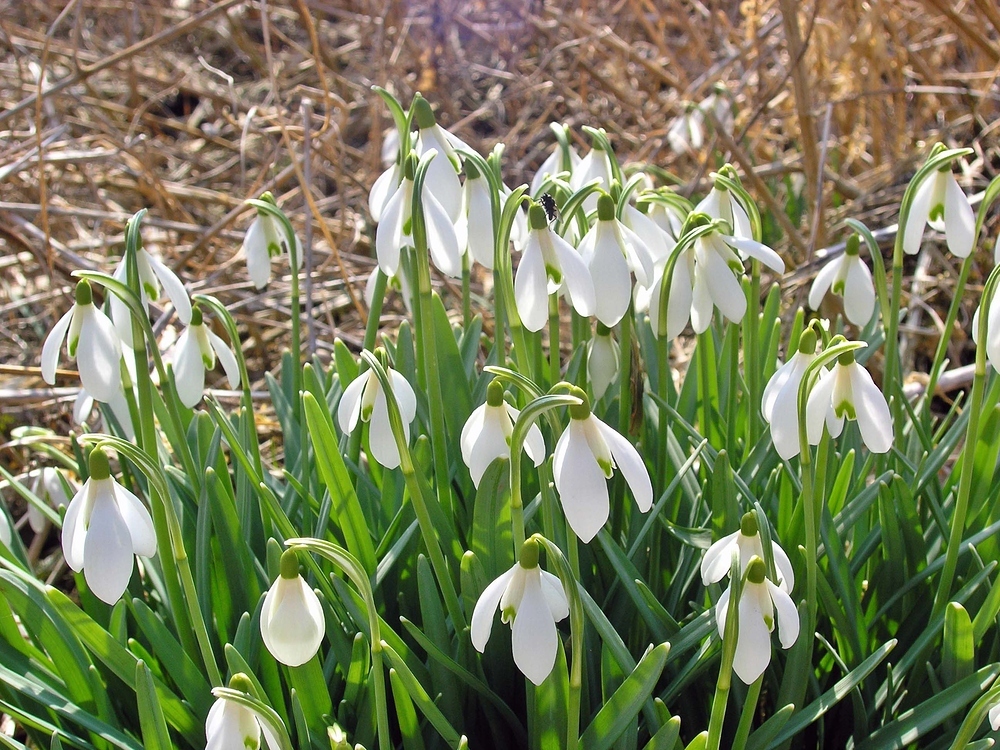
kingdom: Plantae
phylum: Tracheophyta
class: Liliopsida
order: Asparagales
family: Amaryllidaceae
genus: Galanthus
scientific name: Galanthus nivalis
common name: Snowdrop
